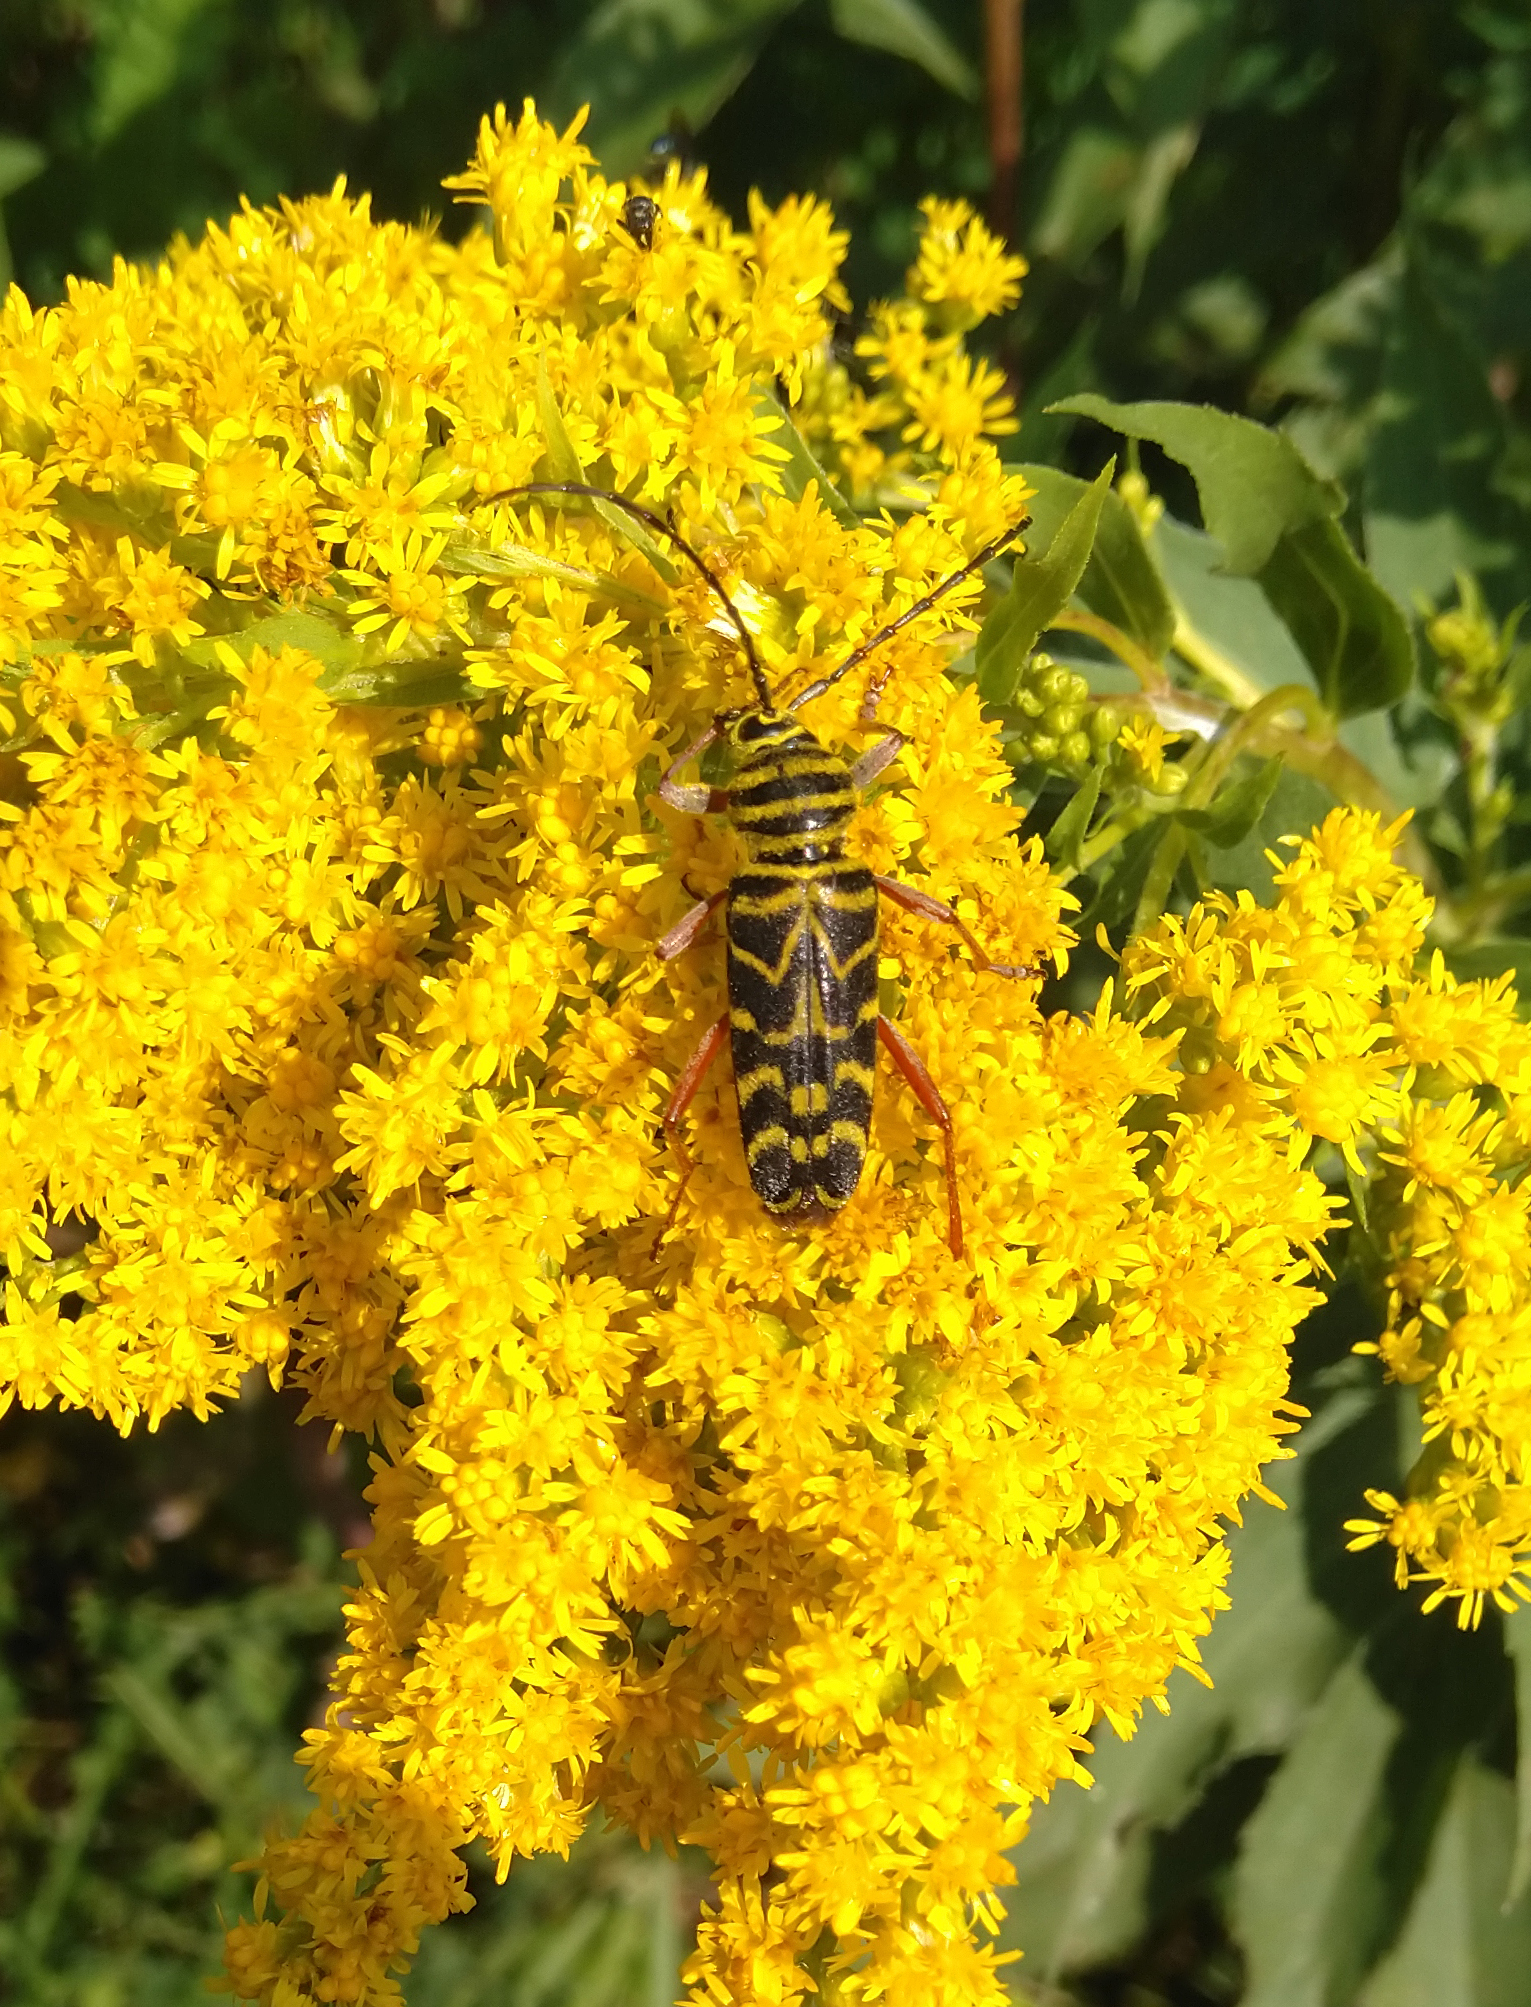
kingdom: Animalia
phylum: Arthropoda
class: Insecta
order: Coleoptera
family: Cerambycidae
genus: Megacyllene
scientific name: Megacyllene robiniae
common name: Locust borer
